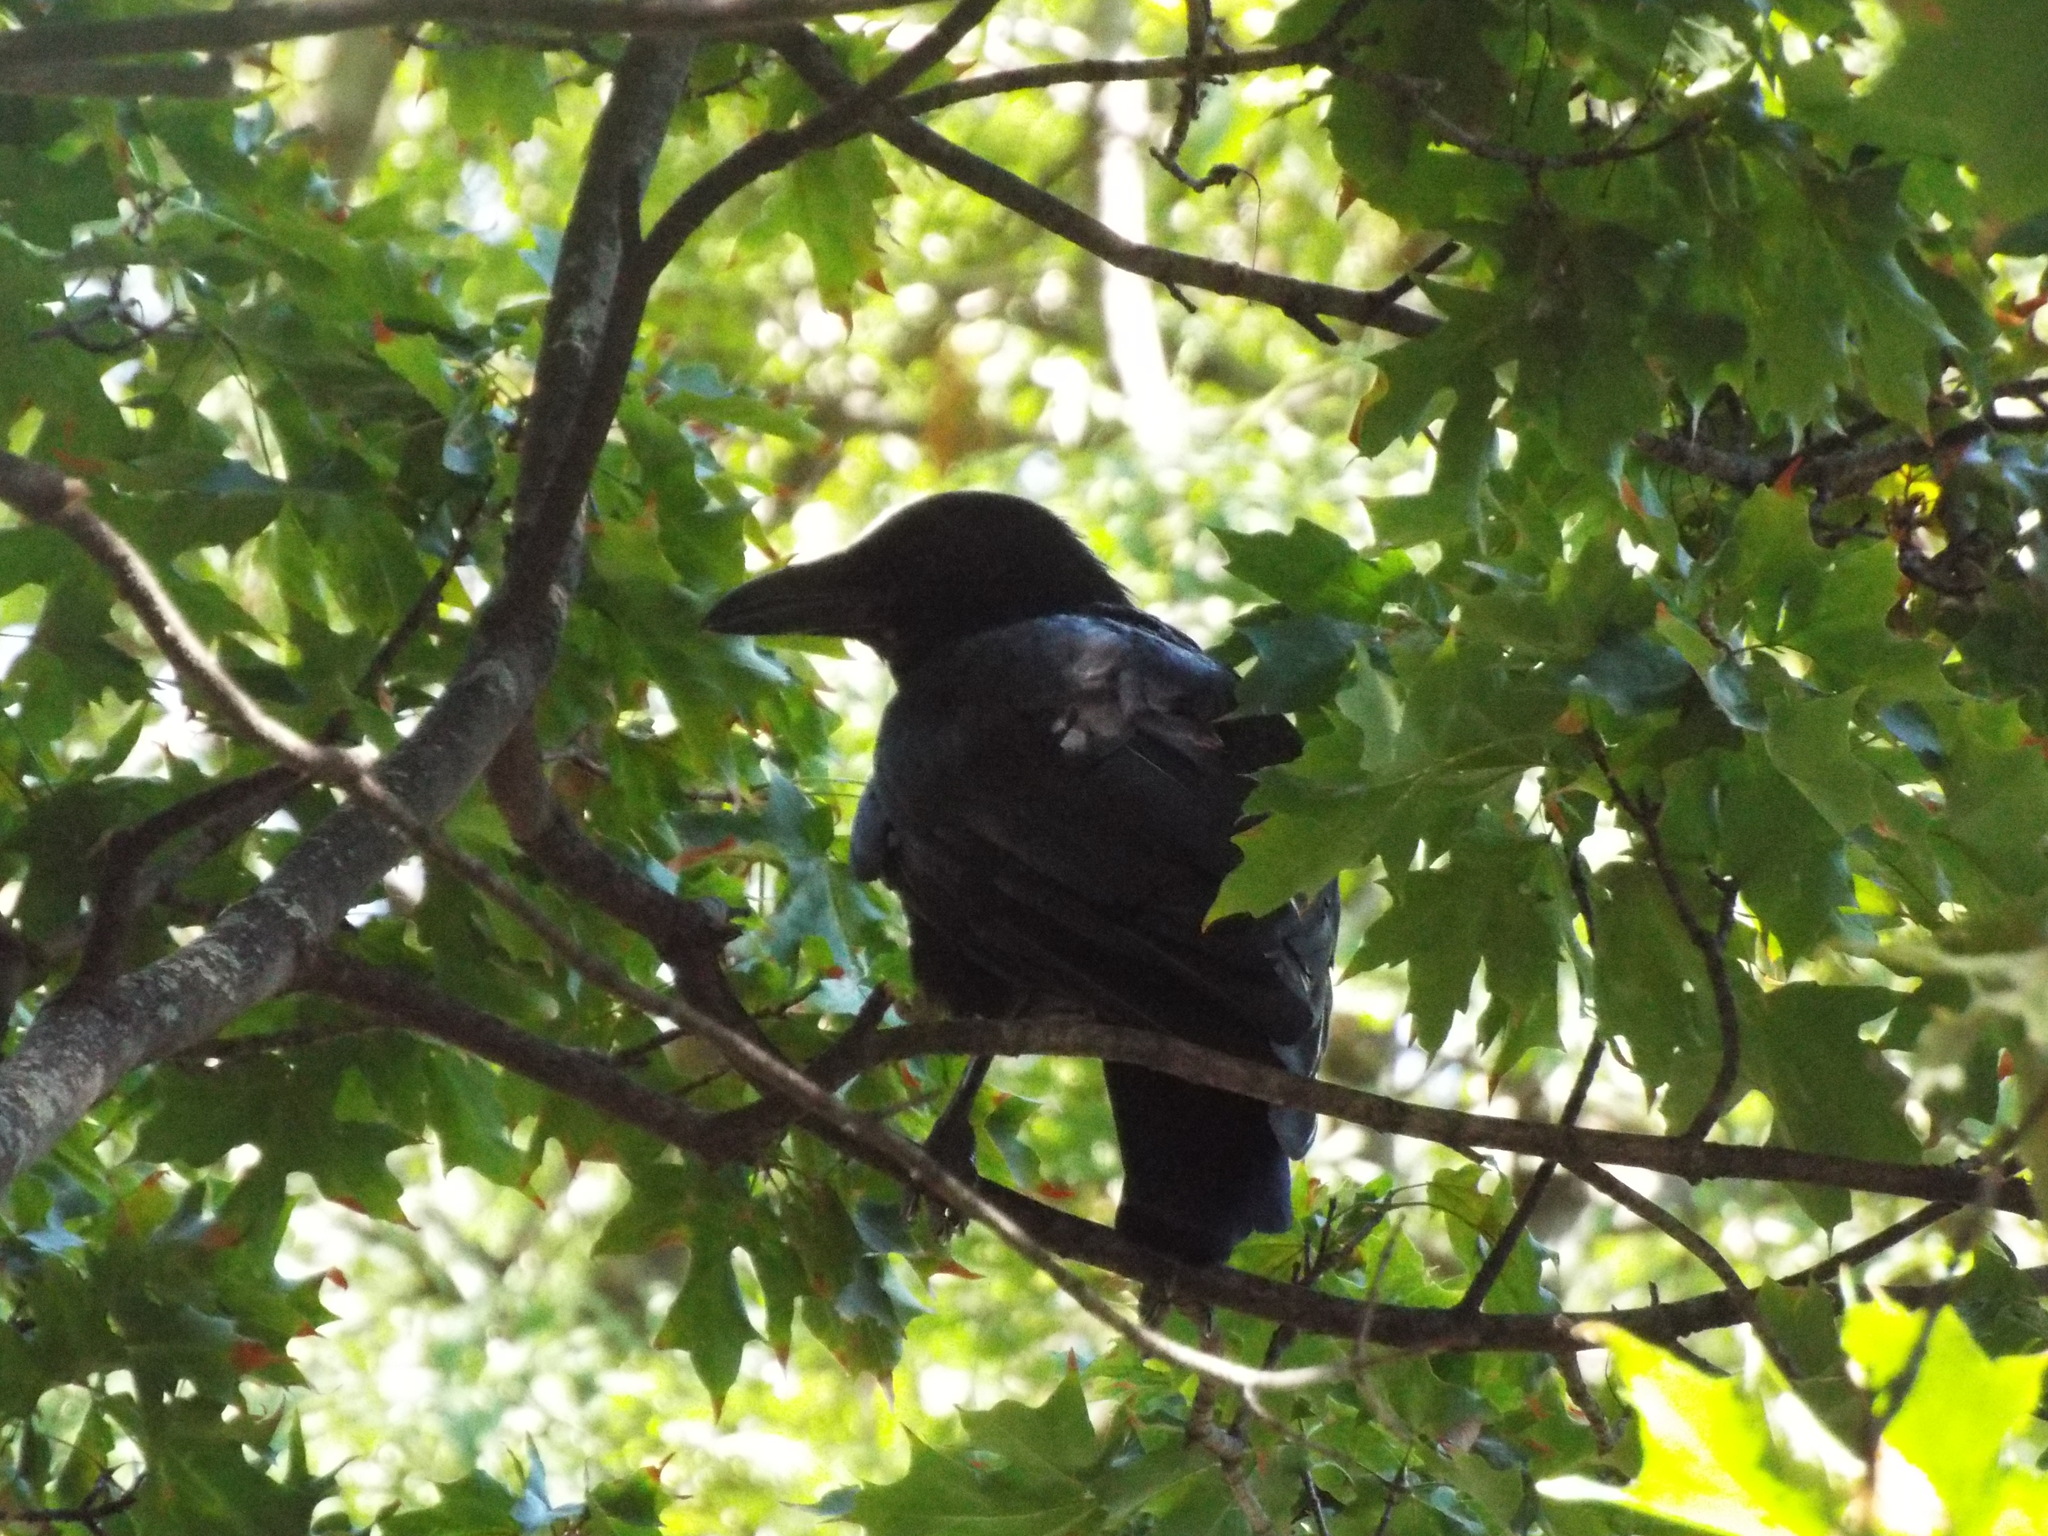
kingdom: Animalia
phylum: Chordata
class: Aves
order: Passeriformes
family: Corvidae
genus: Corvus
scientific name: Corvus corone
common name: Carrion crow
